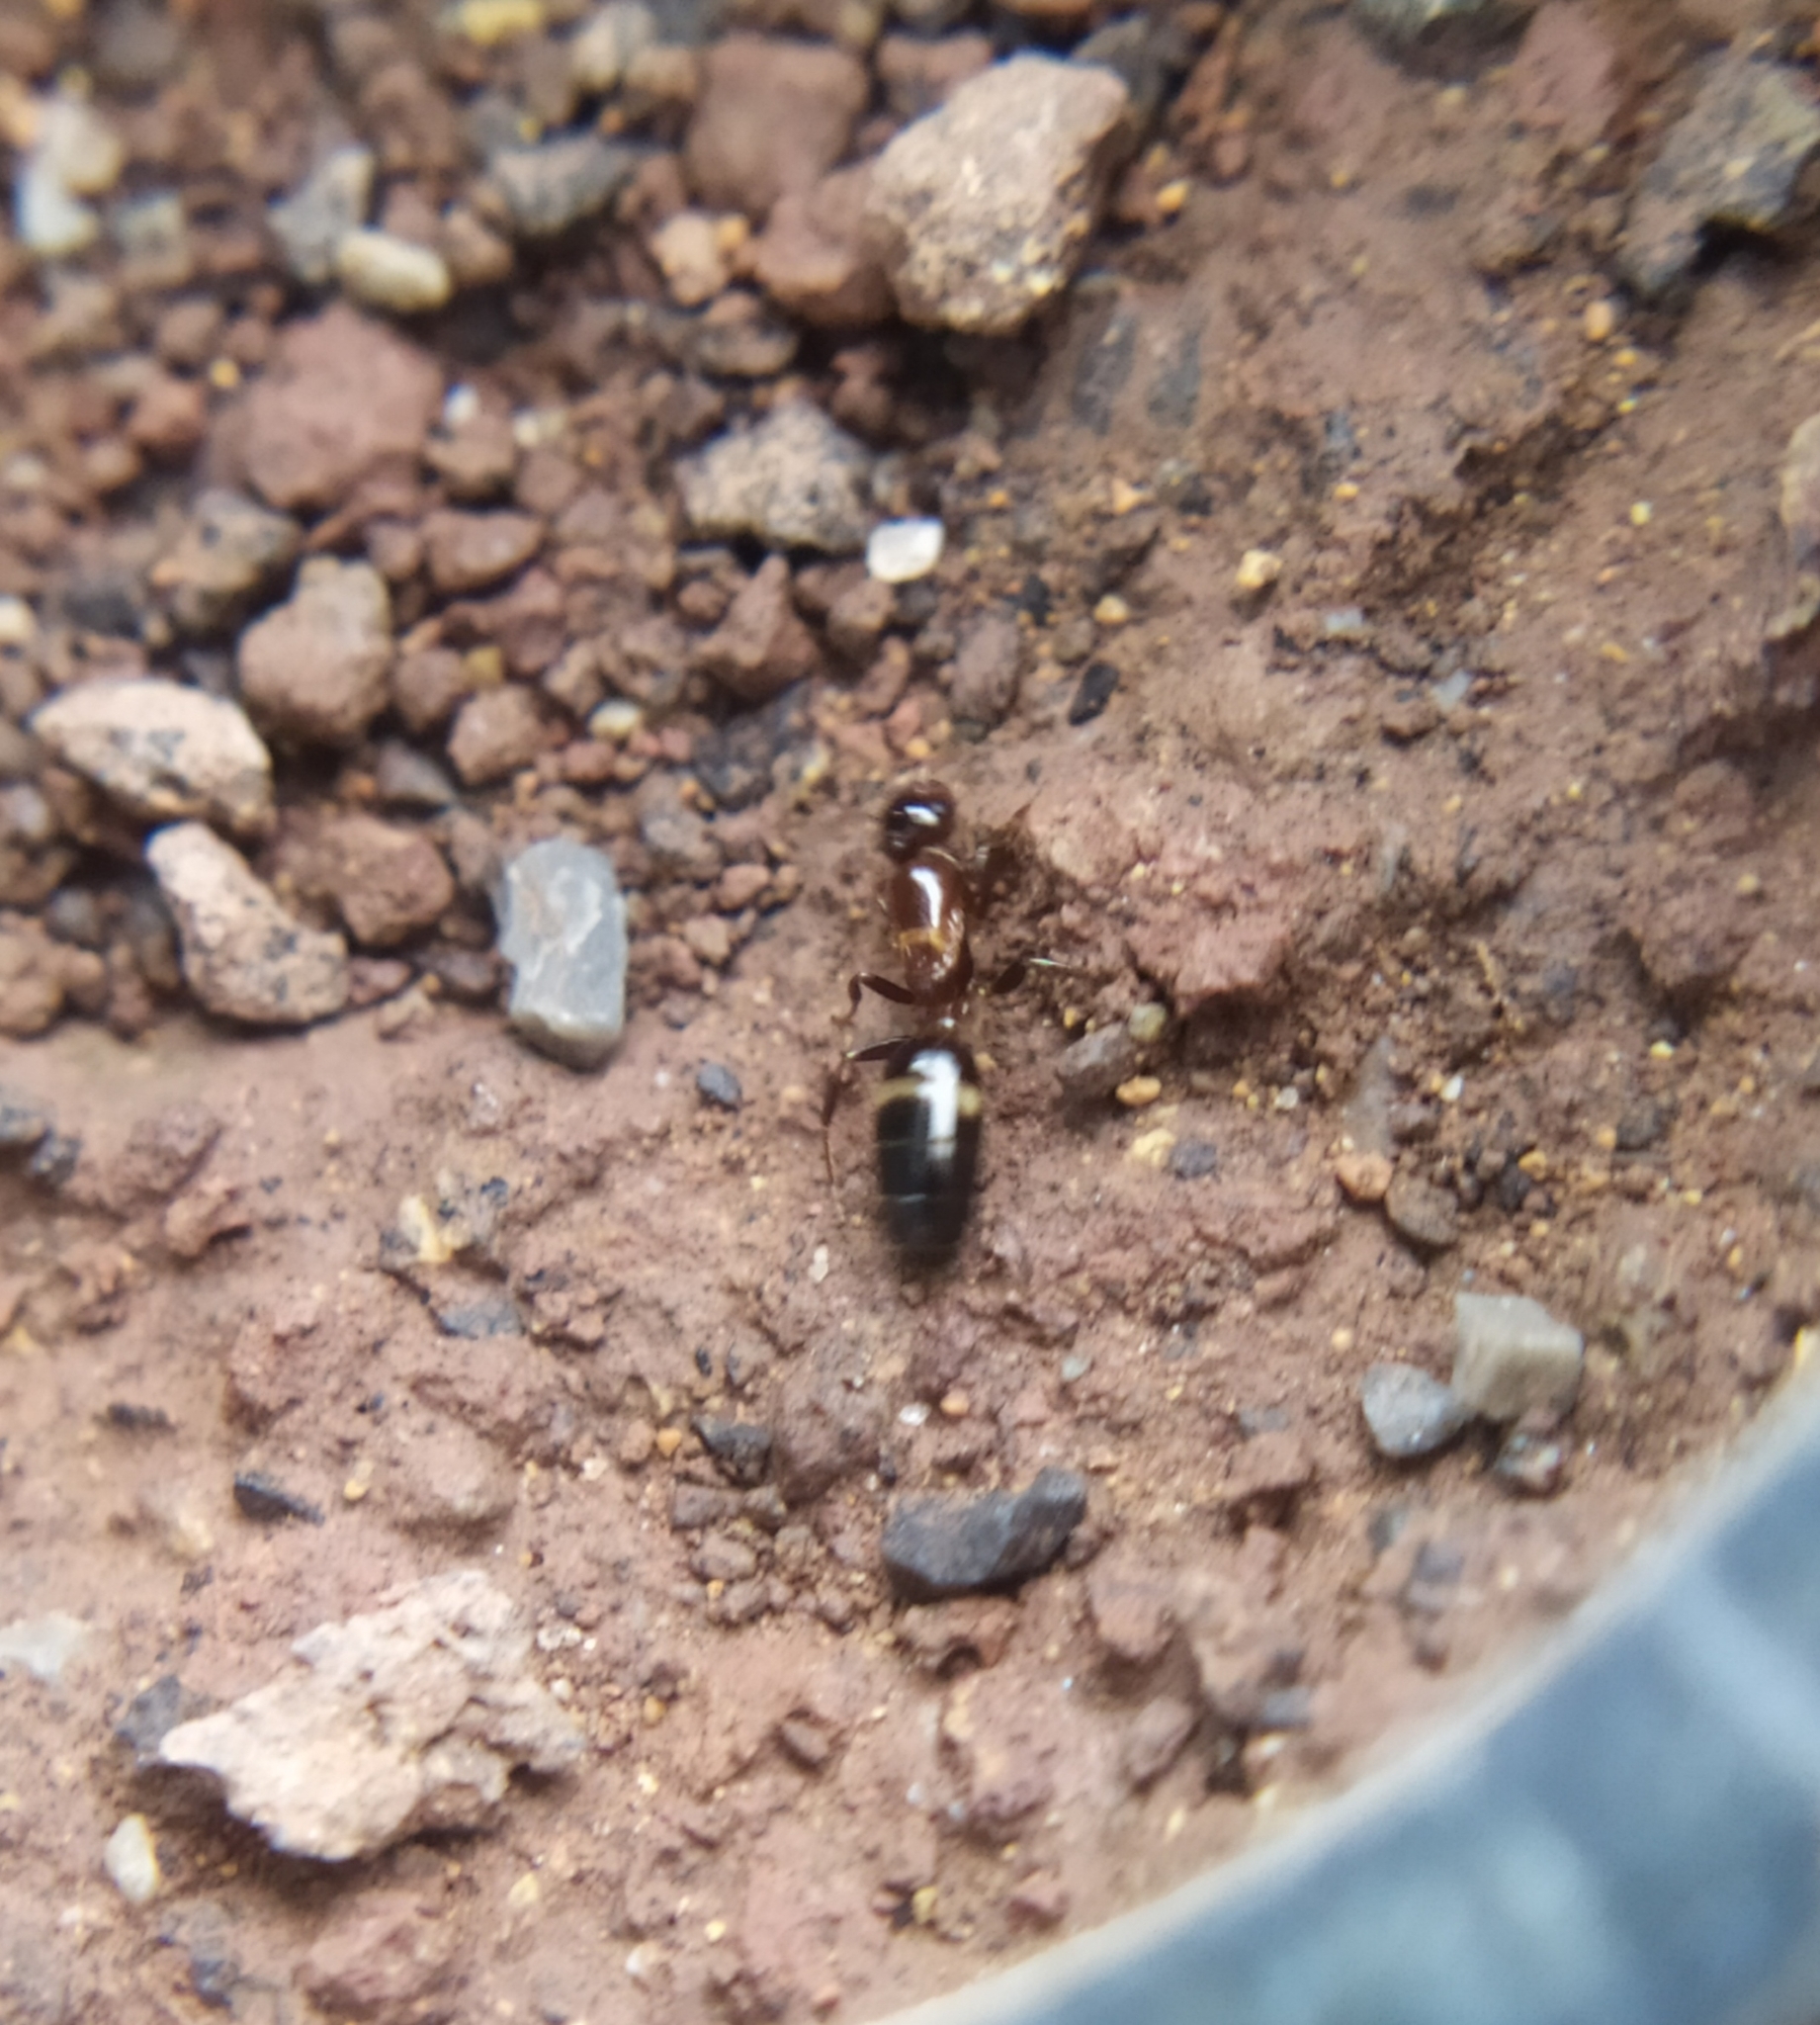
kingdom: Animalia
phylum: Arthropoda
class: Insecta
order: Hymenoptera
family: Formicidae
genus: Camponotus
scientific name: Camponotus truncatus
